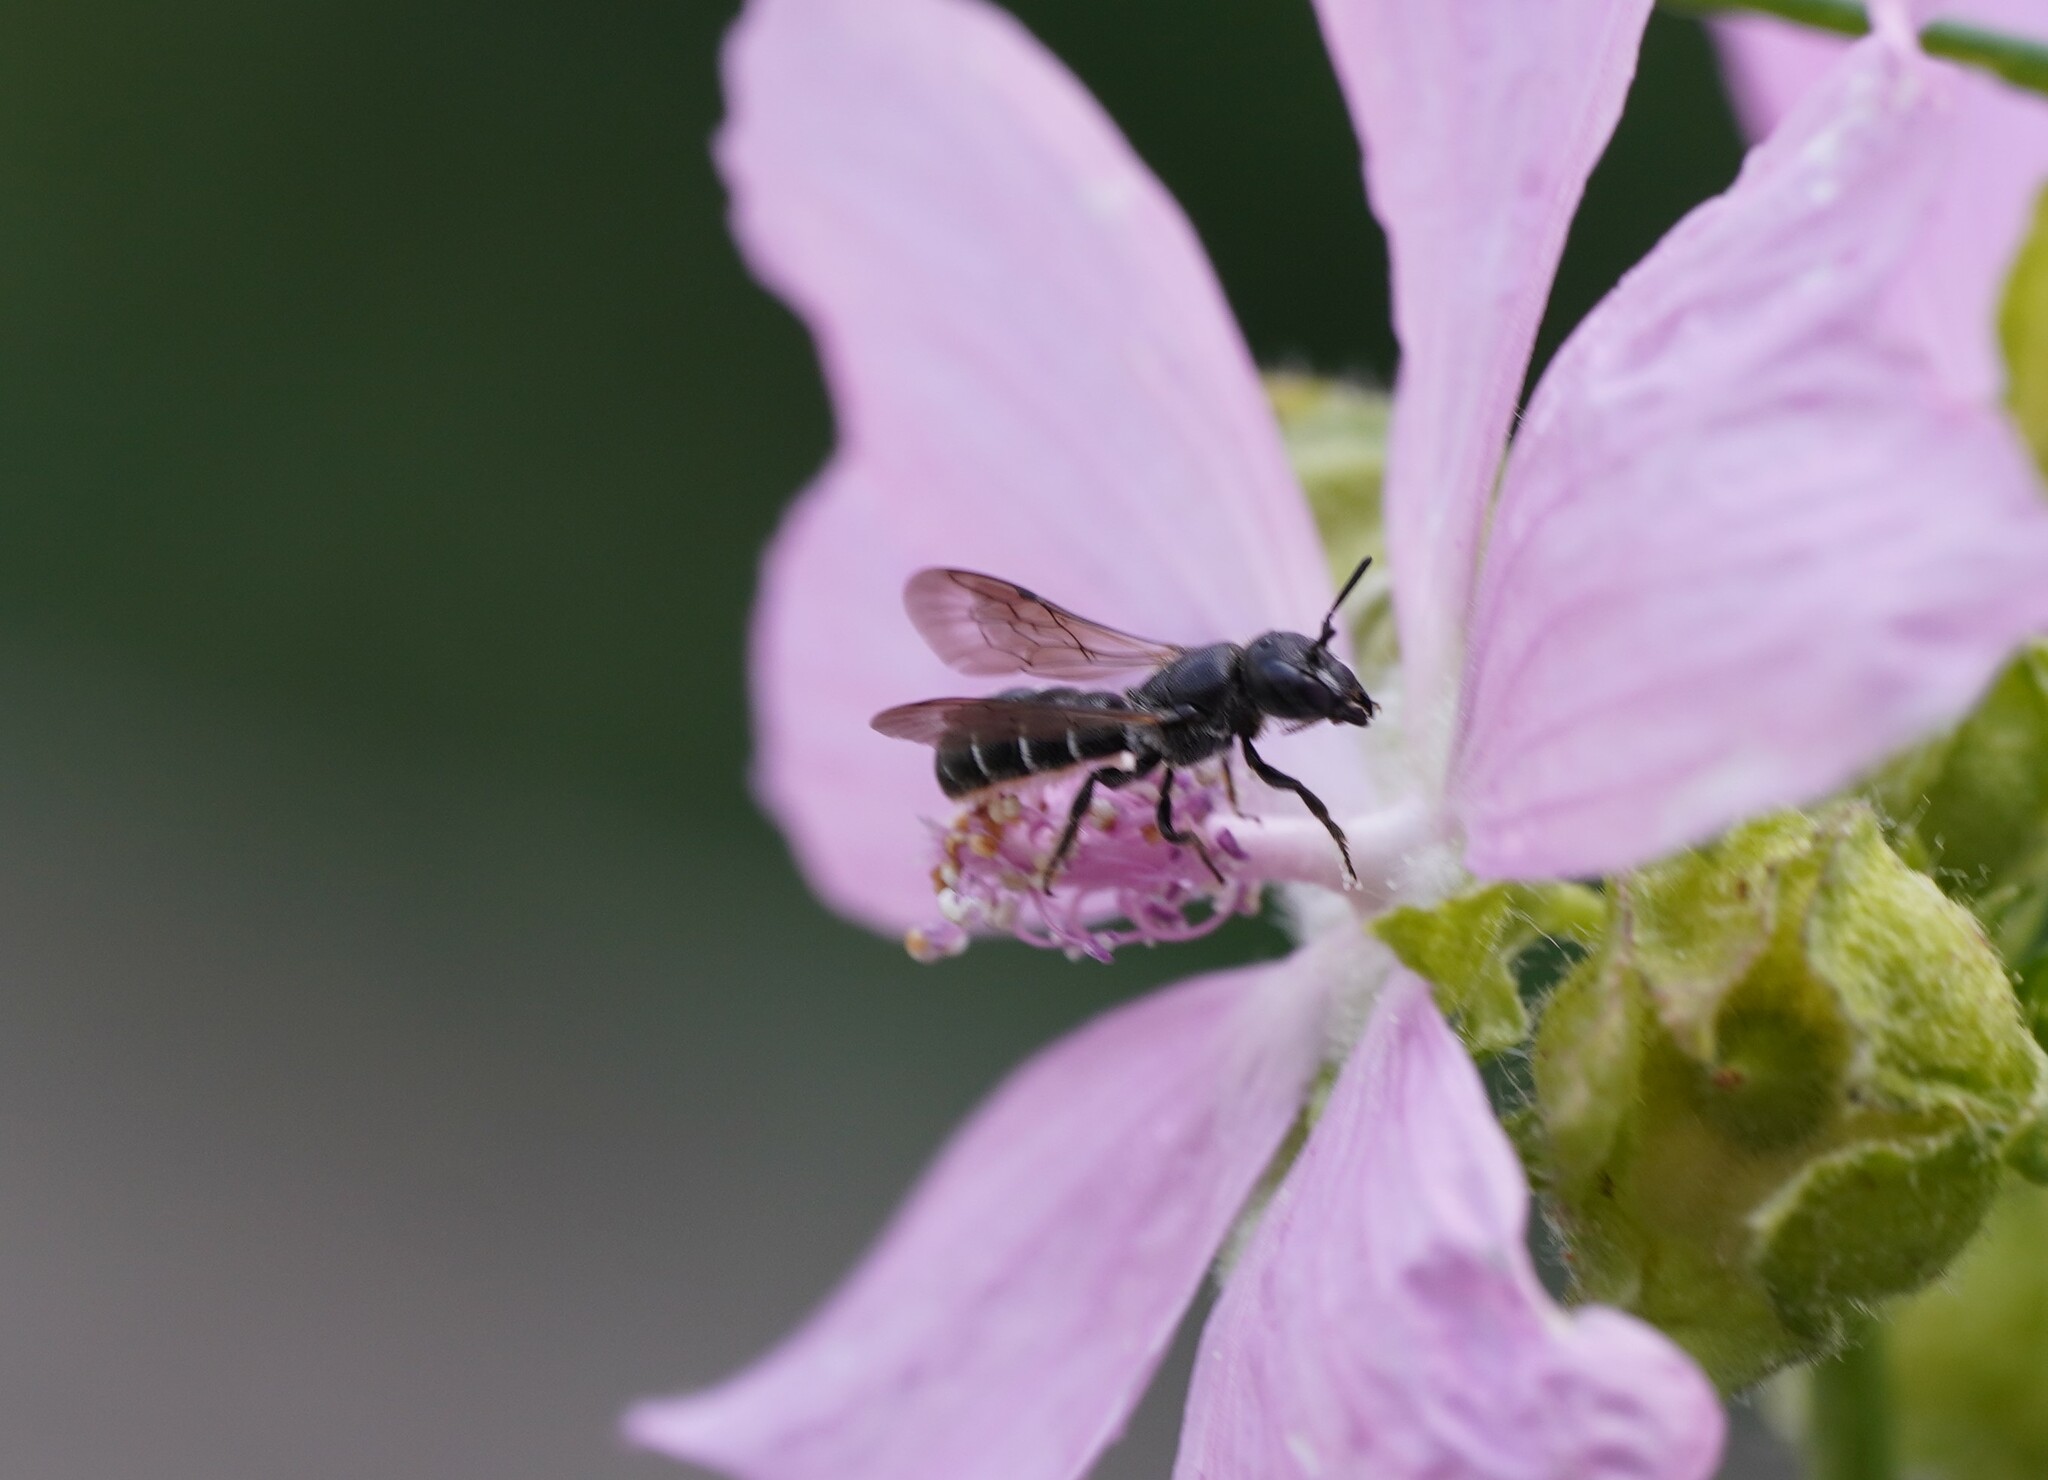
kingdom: Animalia
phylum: Arthropoda
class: Insecta
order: Hymenoptera
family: Megachilidae
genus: Chelostoma
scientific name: Chelostoma rapunculi
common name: Rampion scissor bee
